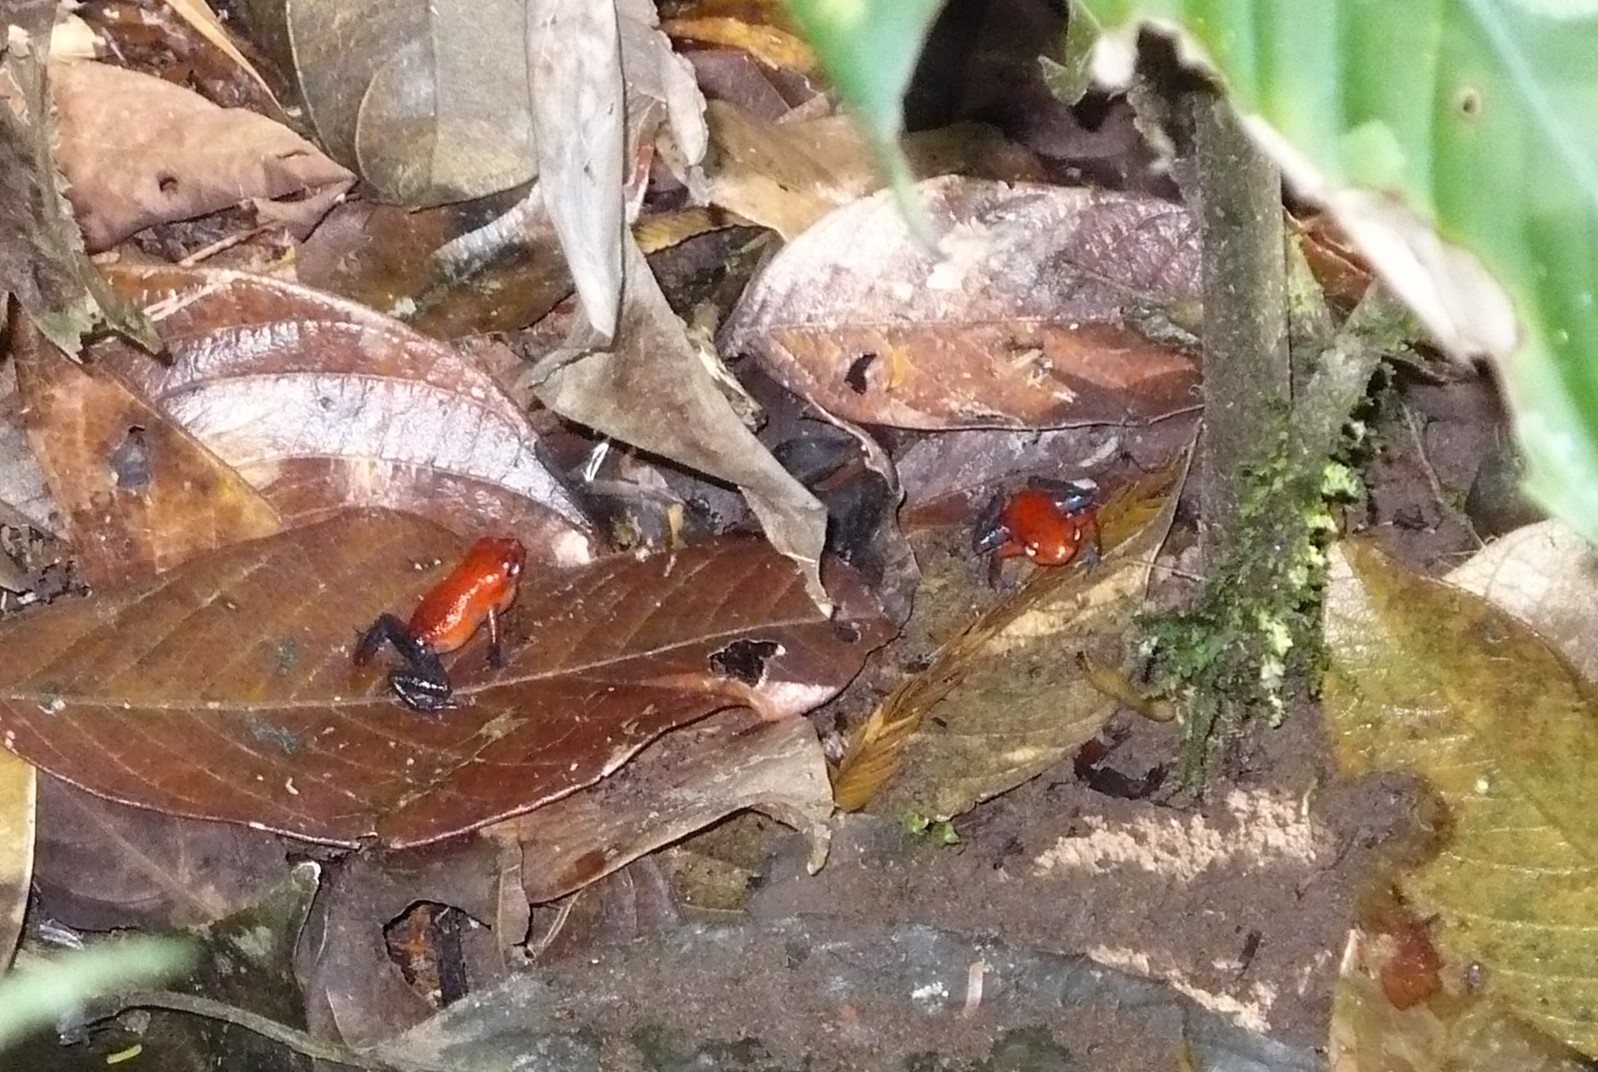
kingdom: Animalia
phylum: Chordata
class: Amphibia
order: Anura
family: Dendrobatidae
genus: Oophaga
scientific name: Oophaga pumilio
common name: Flaming poison frog
